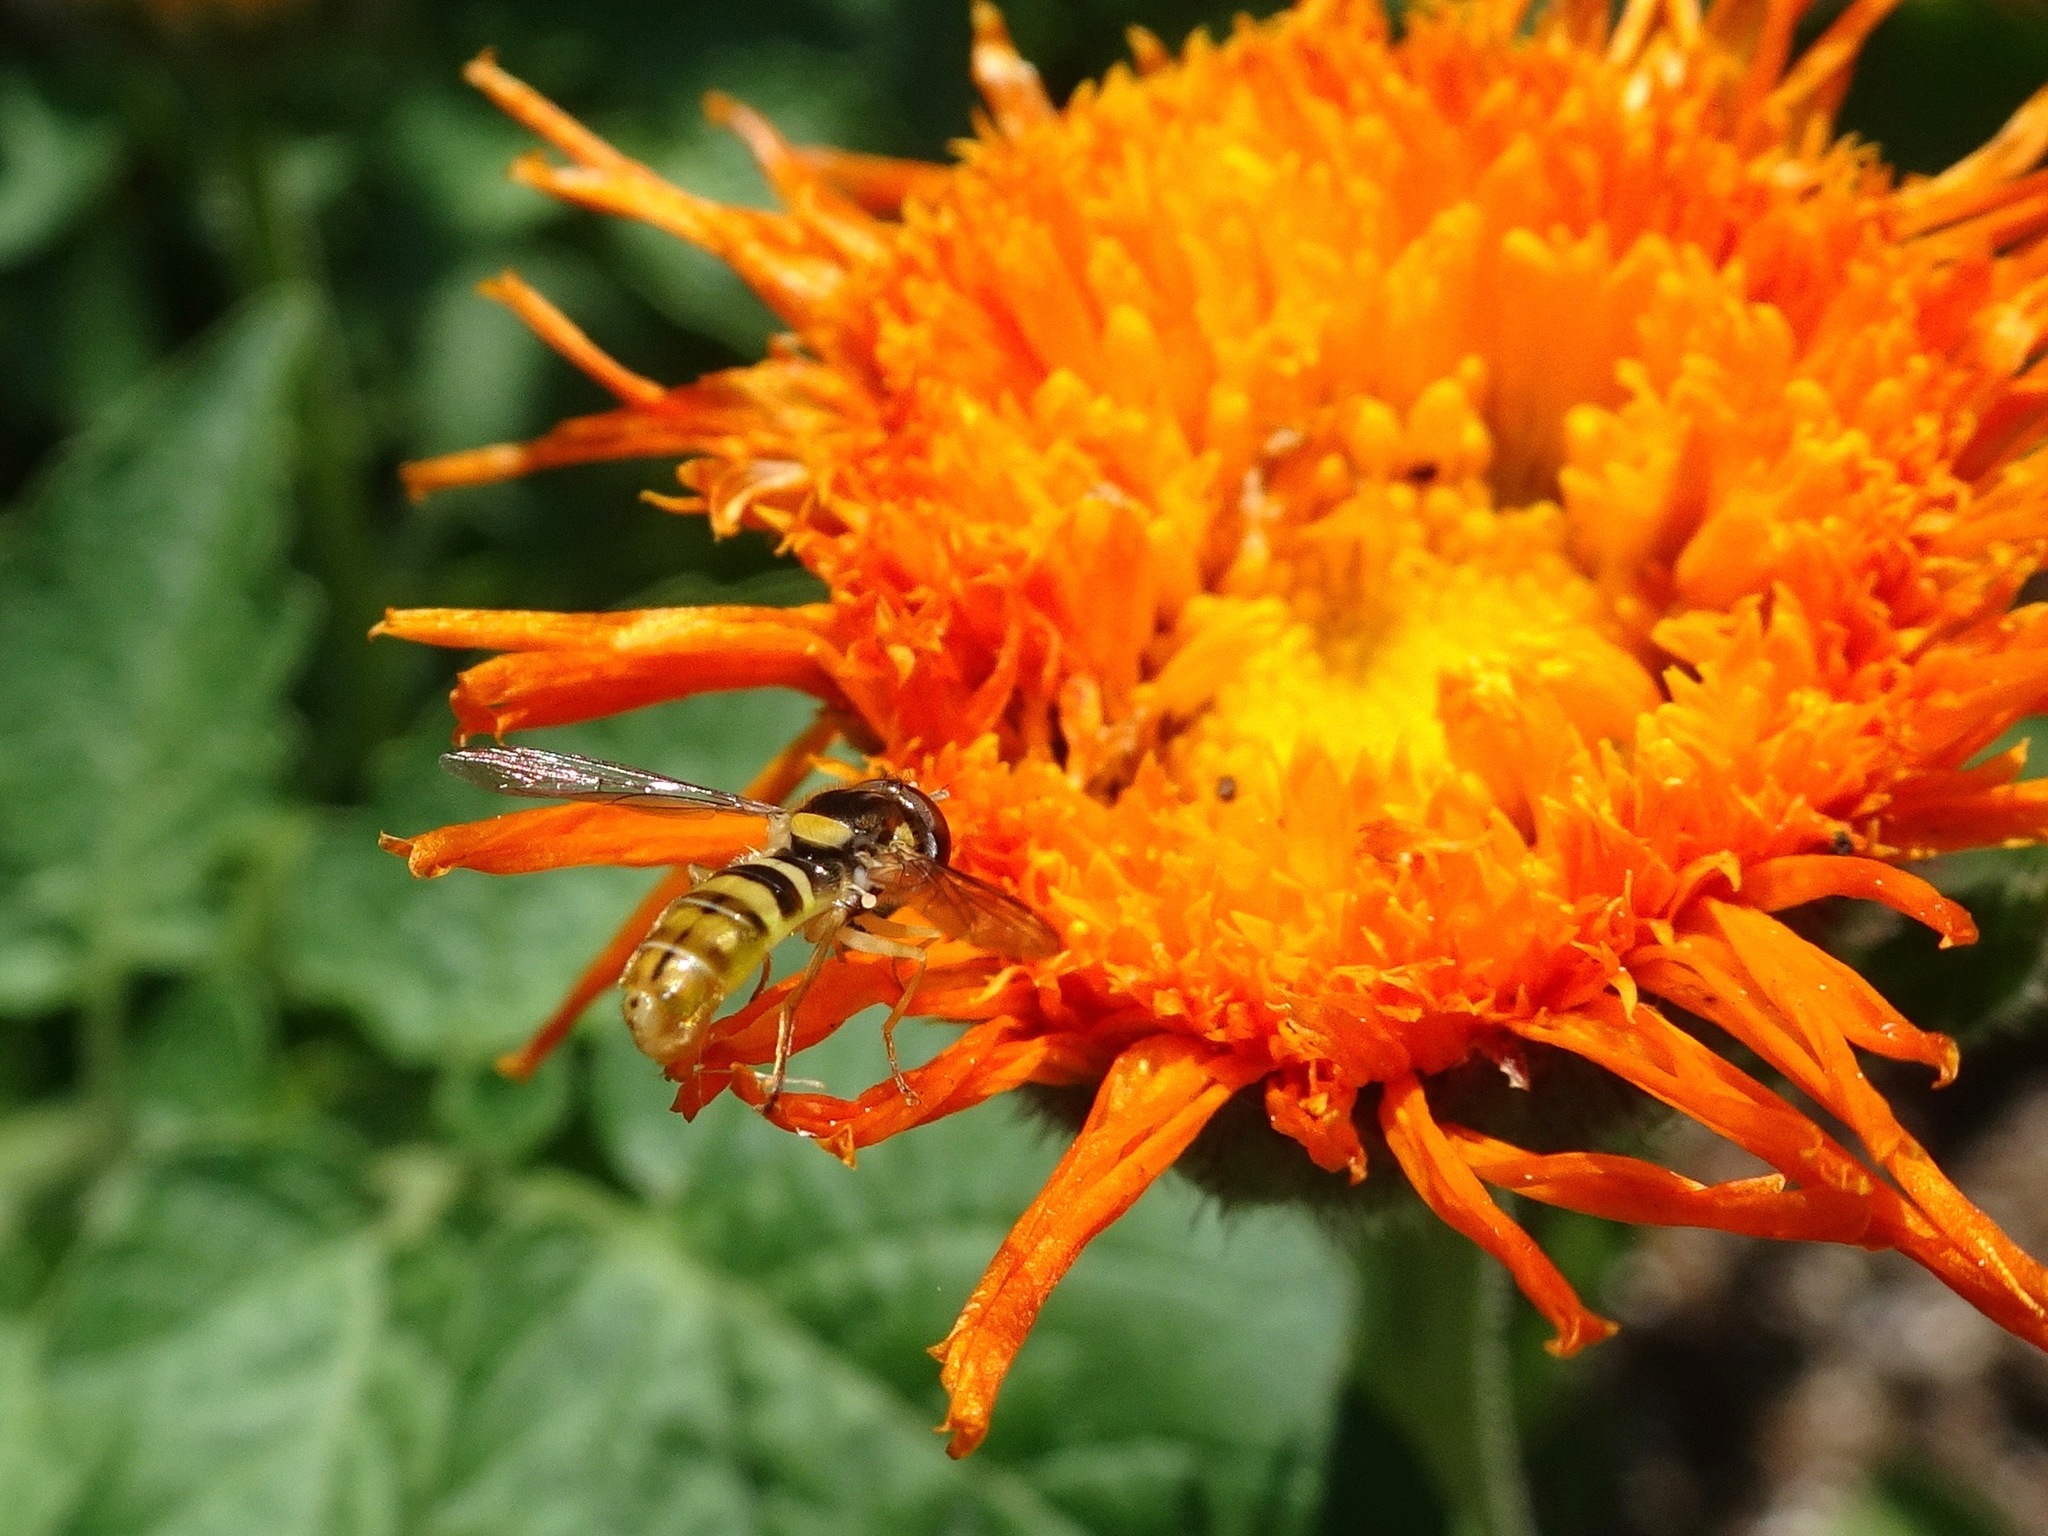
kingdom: Animalia
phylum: Arthropoda
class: Insecta
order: Diptera
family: Syrphidae
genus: Sphaerophoria
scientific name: Sphaerophoria sulphuripes
